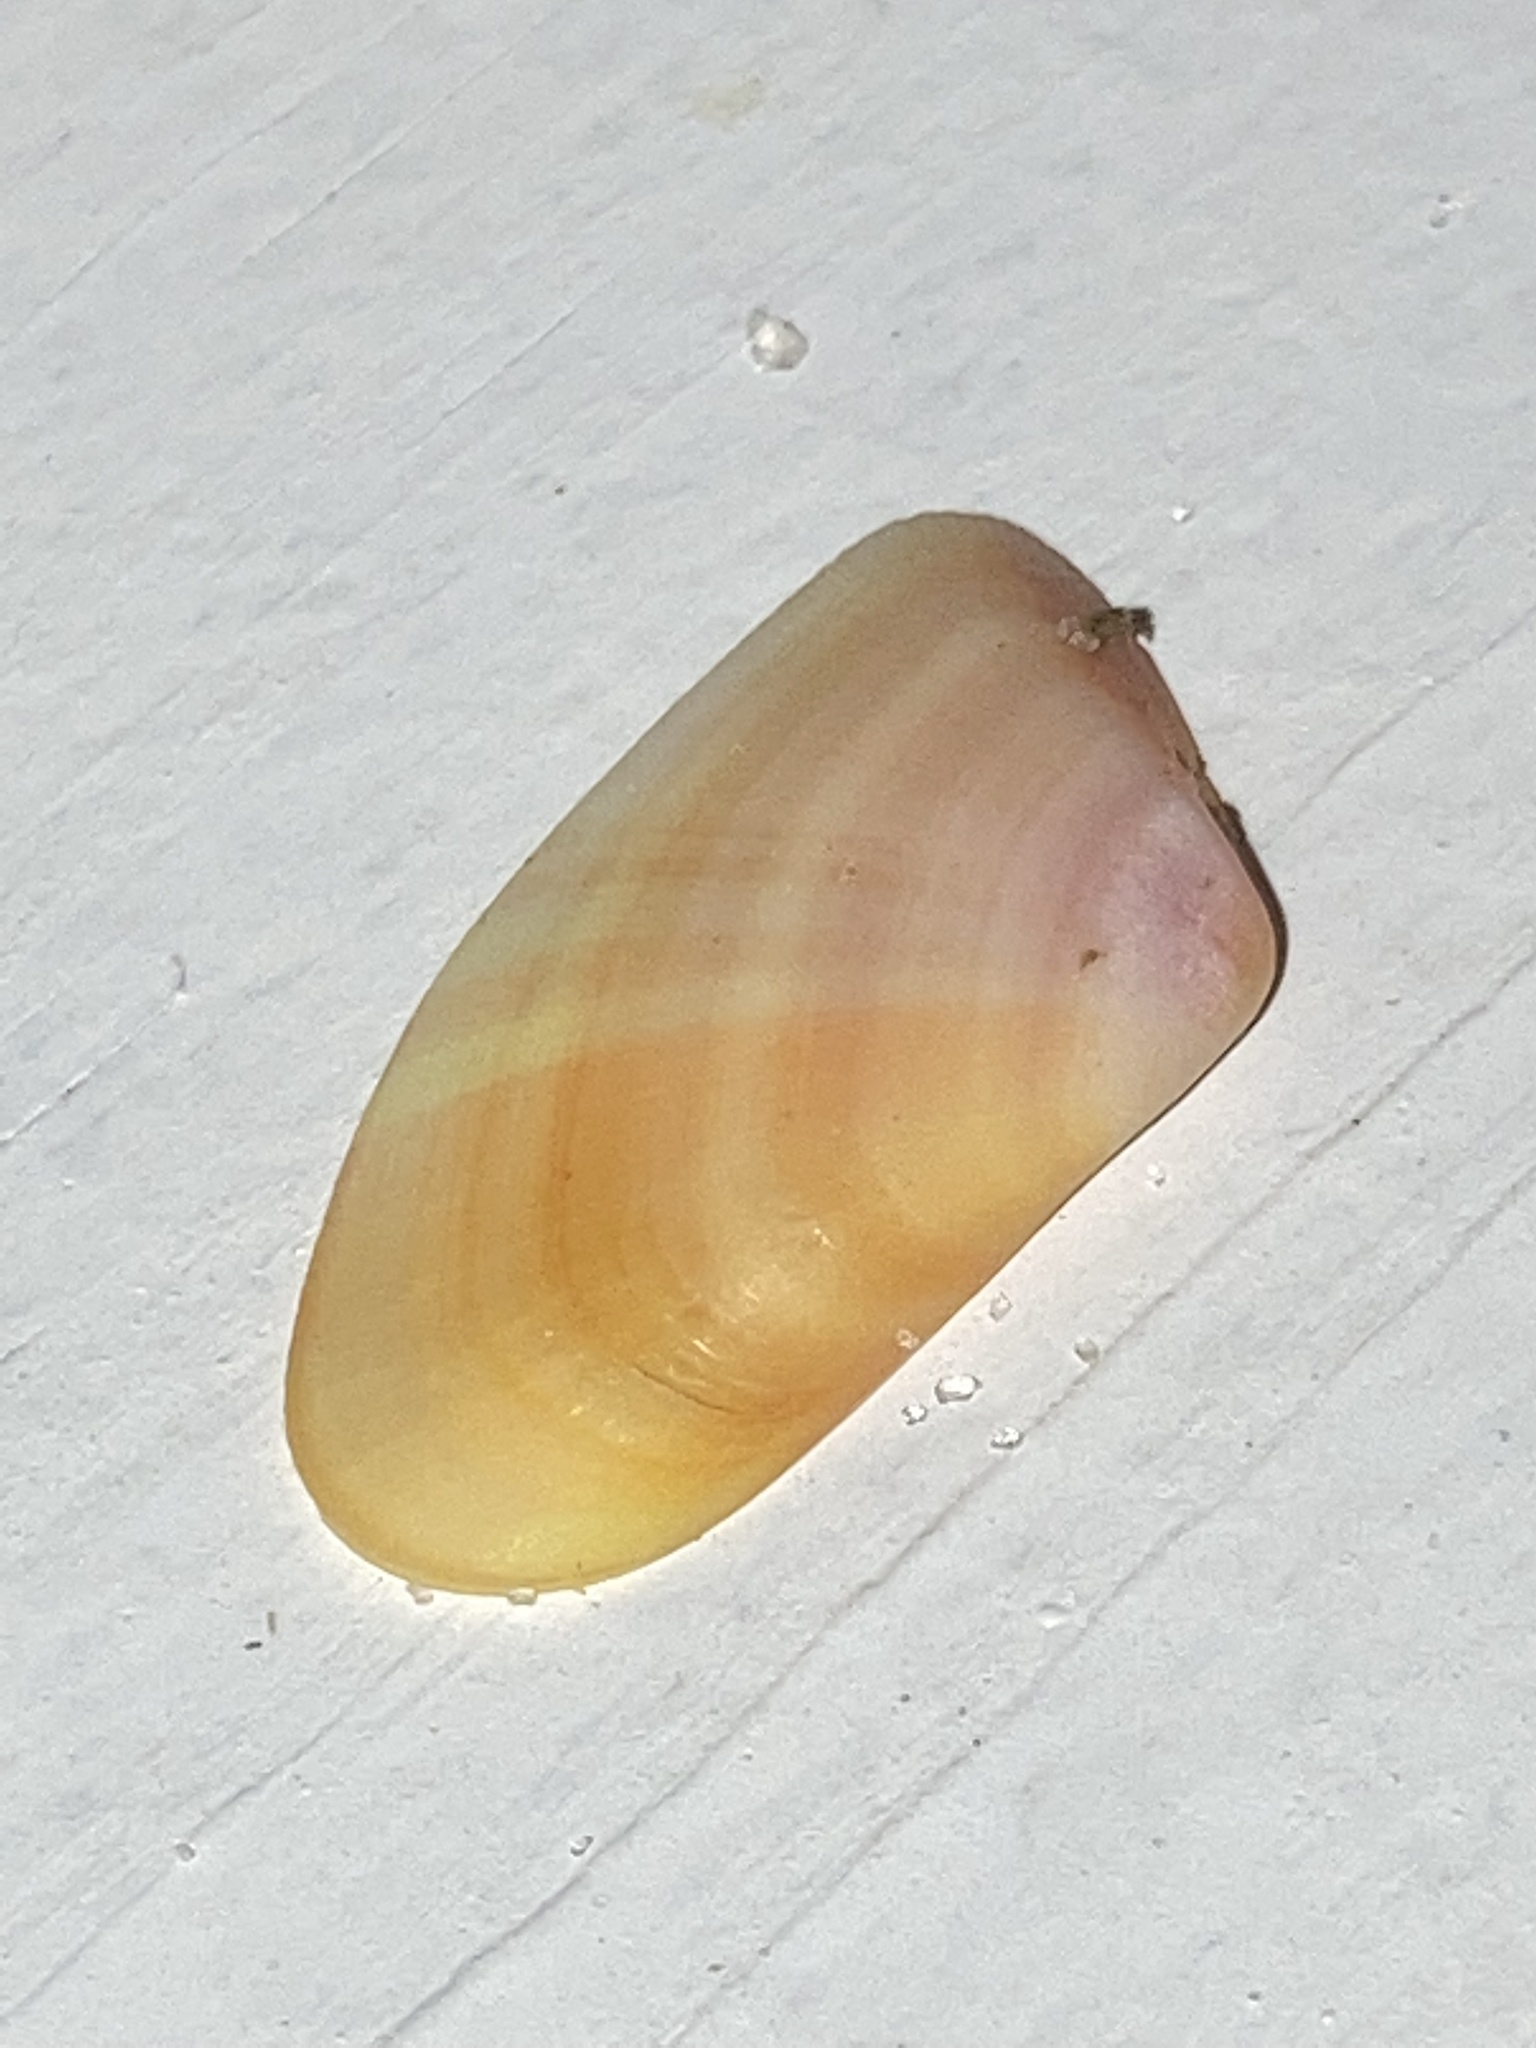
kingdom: Animalia
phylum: Mollusca
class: Bivalvia
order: Cardiida
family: Donacidae
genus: Donax
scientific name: Donax variabilis
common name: Butterfly shell
